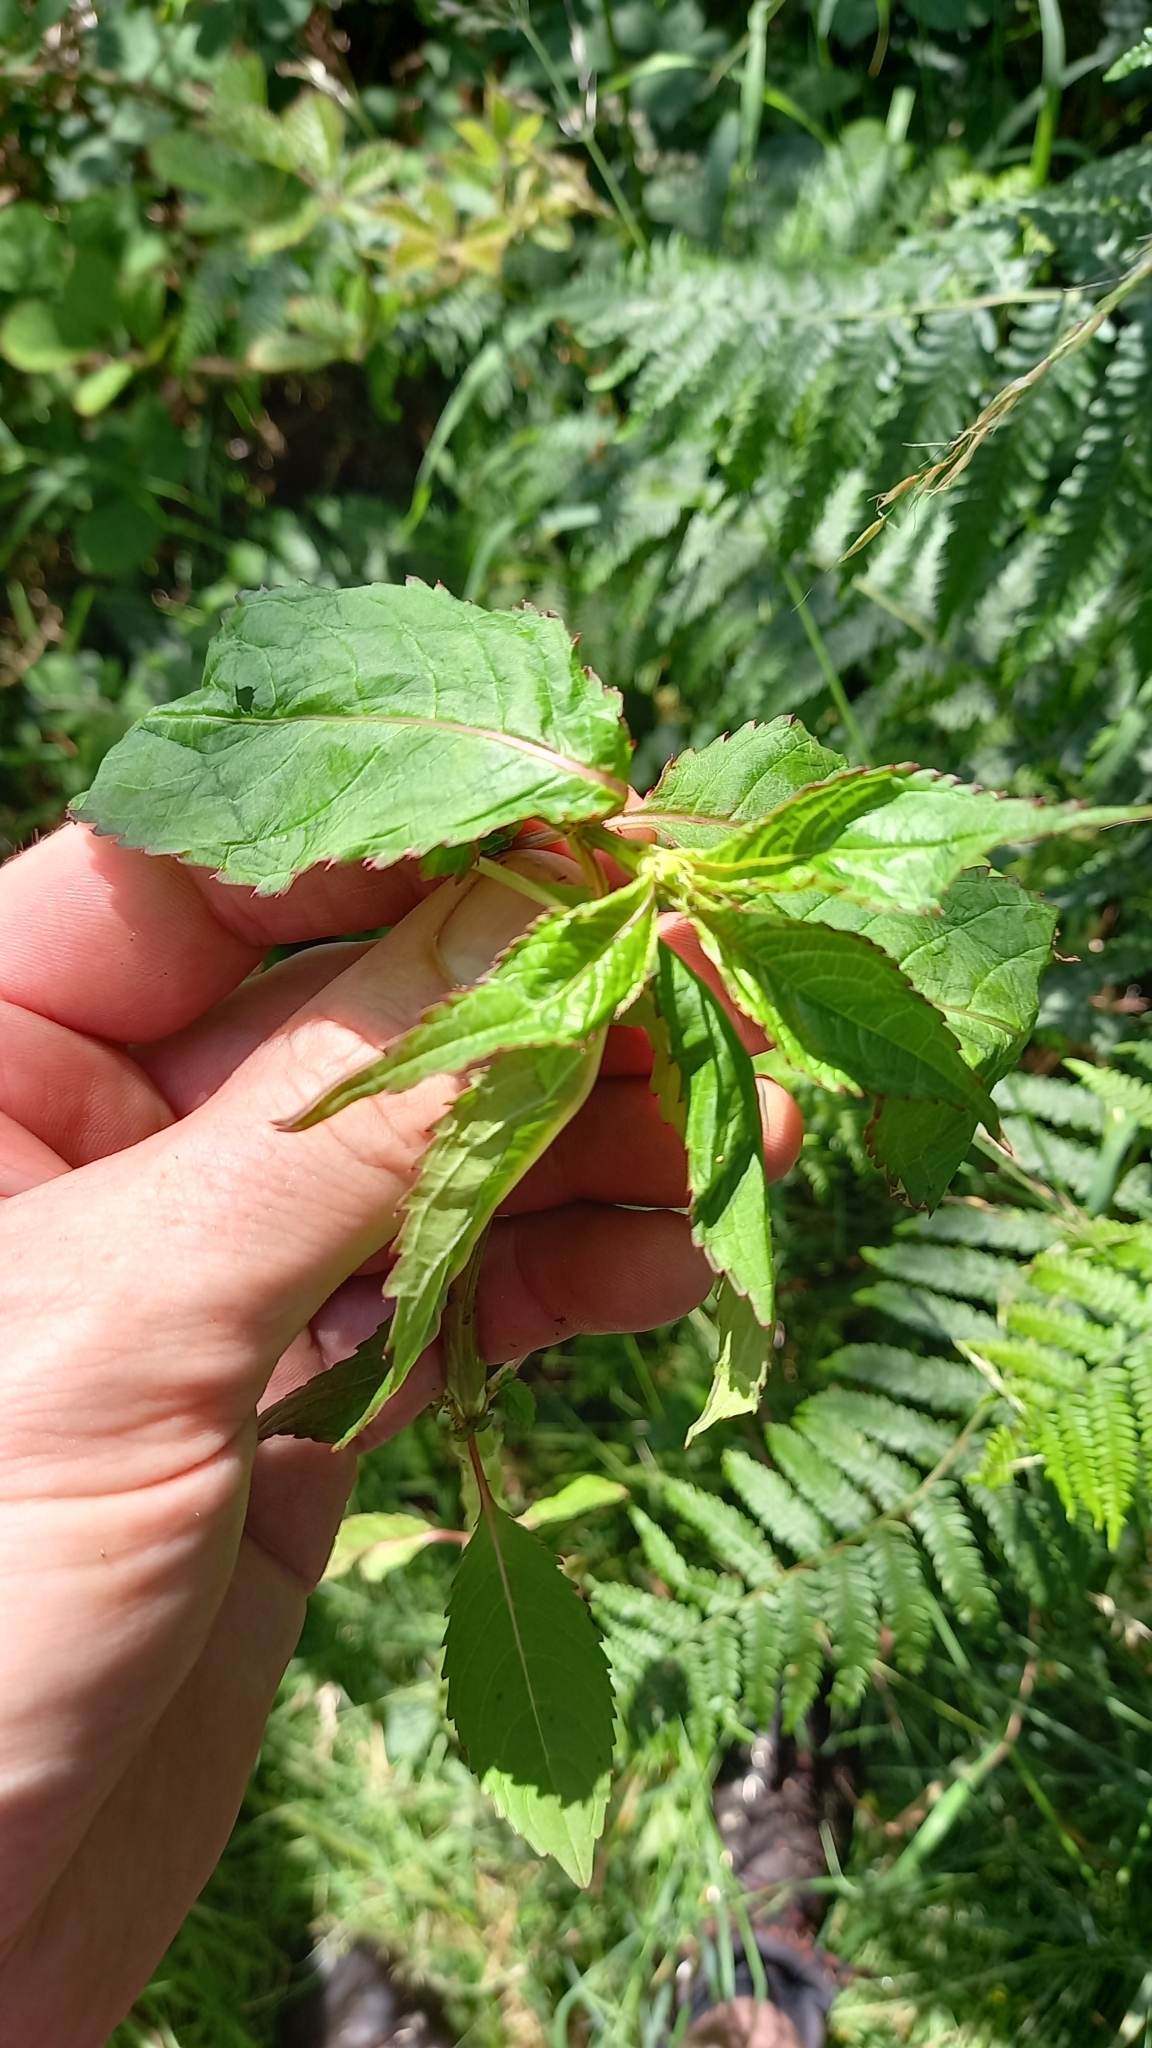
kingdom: Plantae
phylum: Tracheophyta
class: Magnoliopsida
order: Ericales
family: Balsaminaceae
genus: Impatiens
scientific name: Impatiens glandulifera
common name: Himalayan balsam
